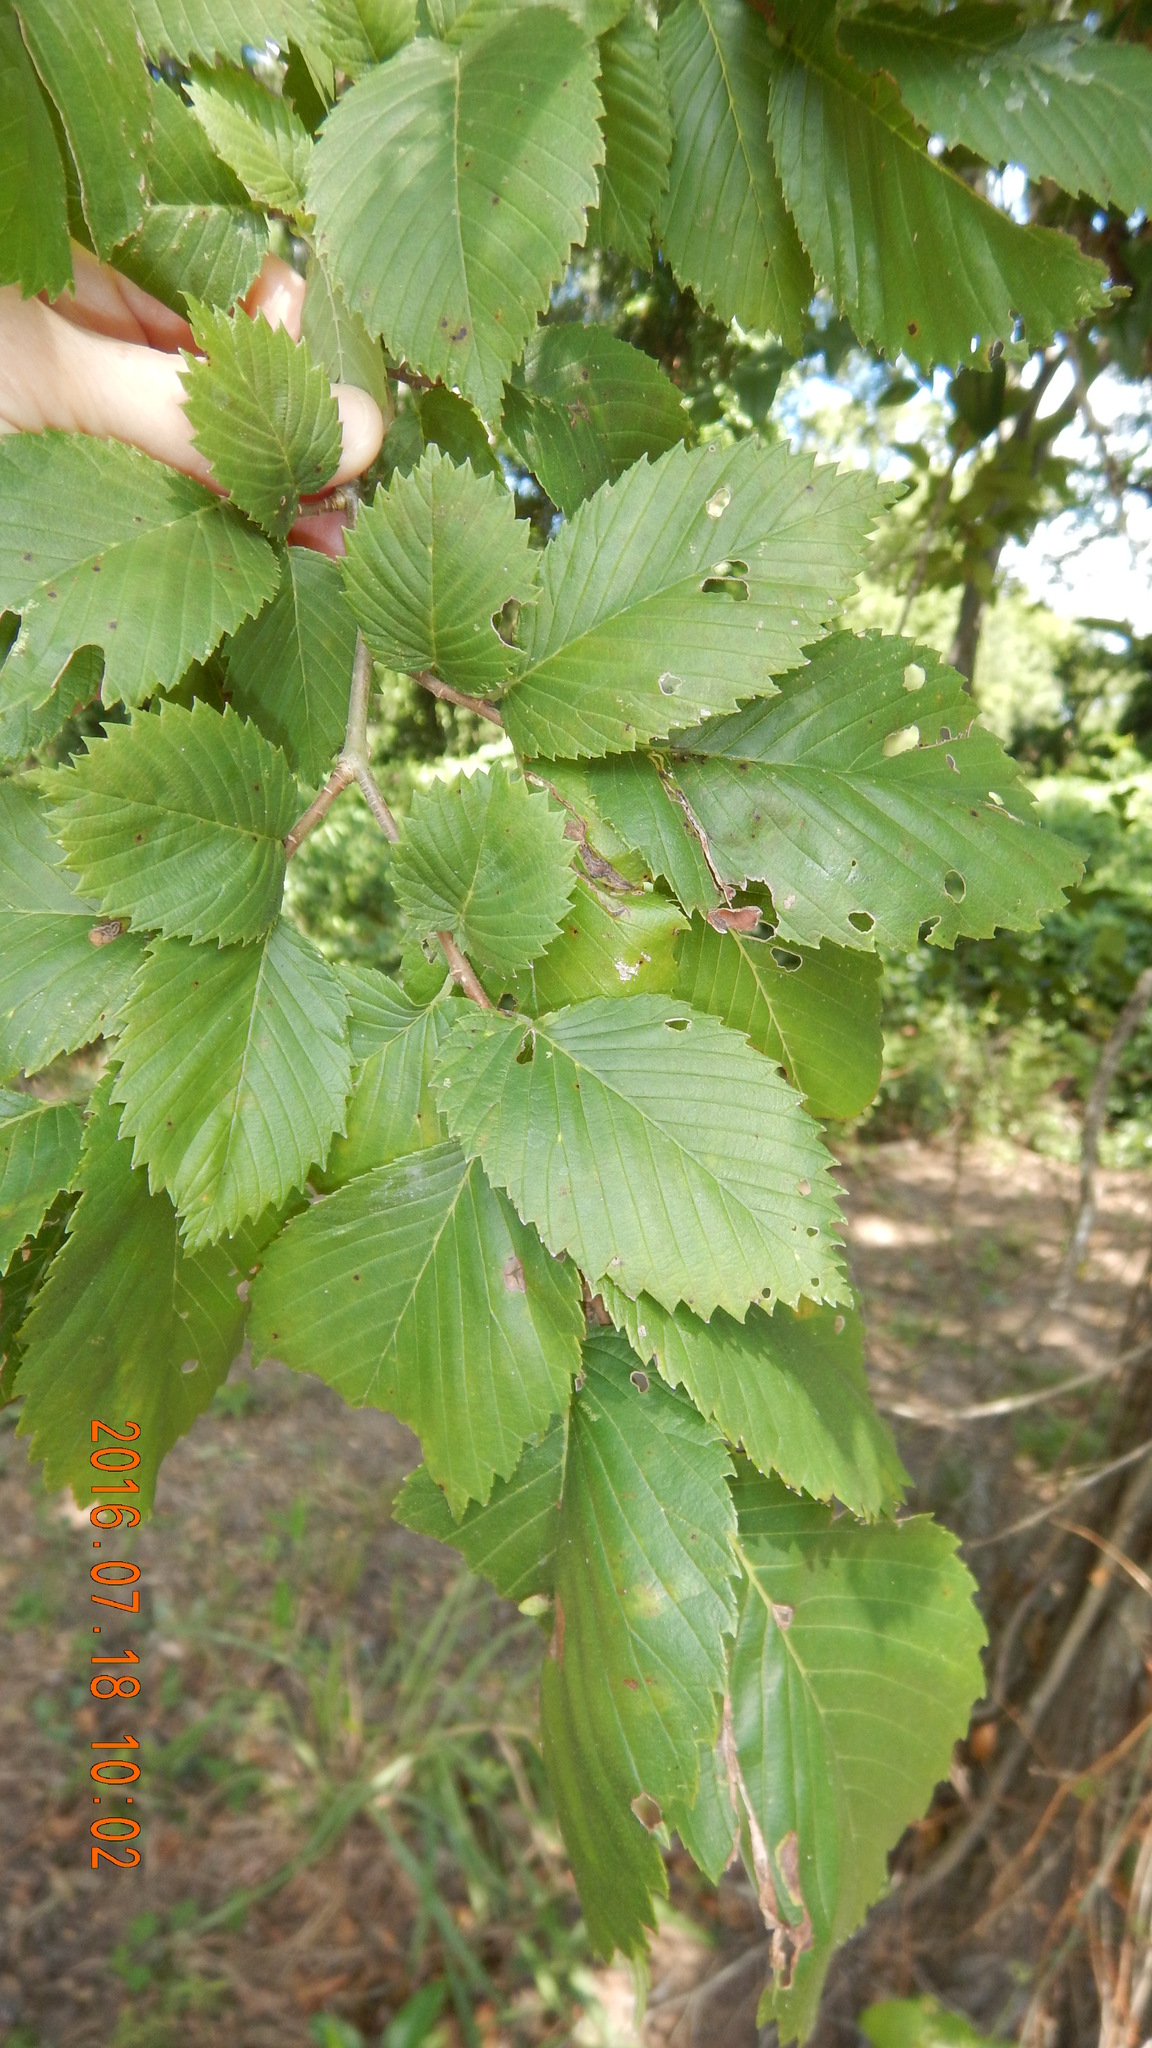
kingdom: Plantae
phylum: Tracheophyta
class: Magnoliopsida
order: Rosales
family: Ulmaceae
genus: Ulmus
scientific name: Ulmus americana
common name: American elm
